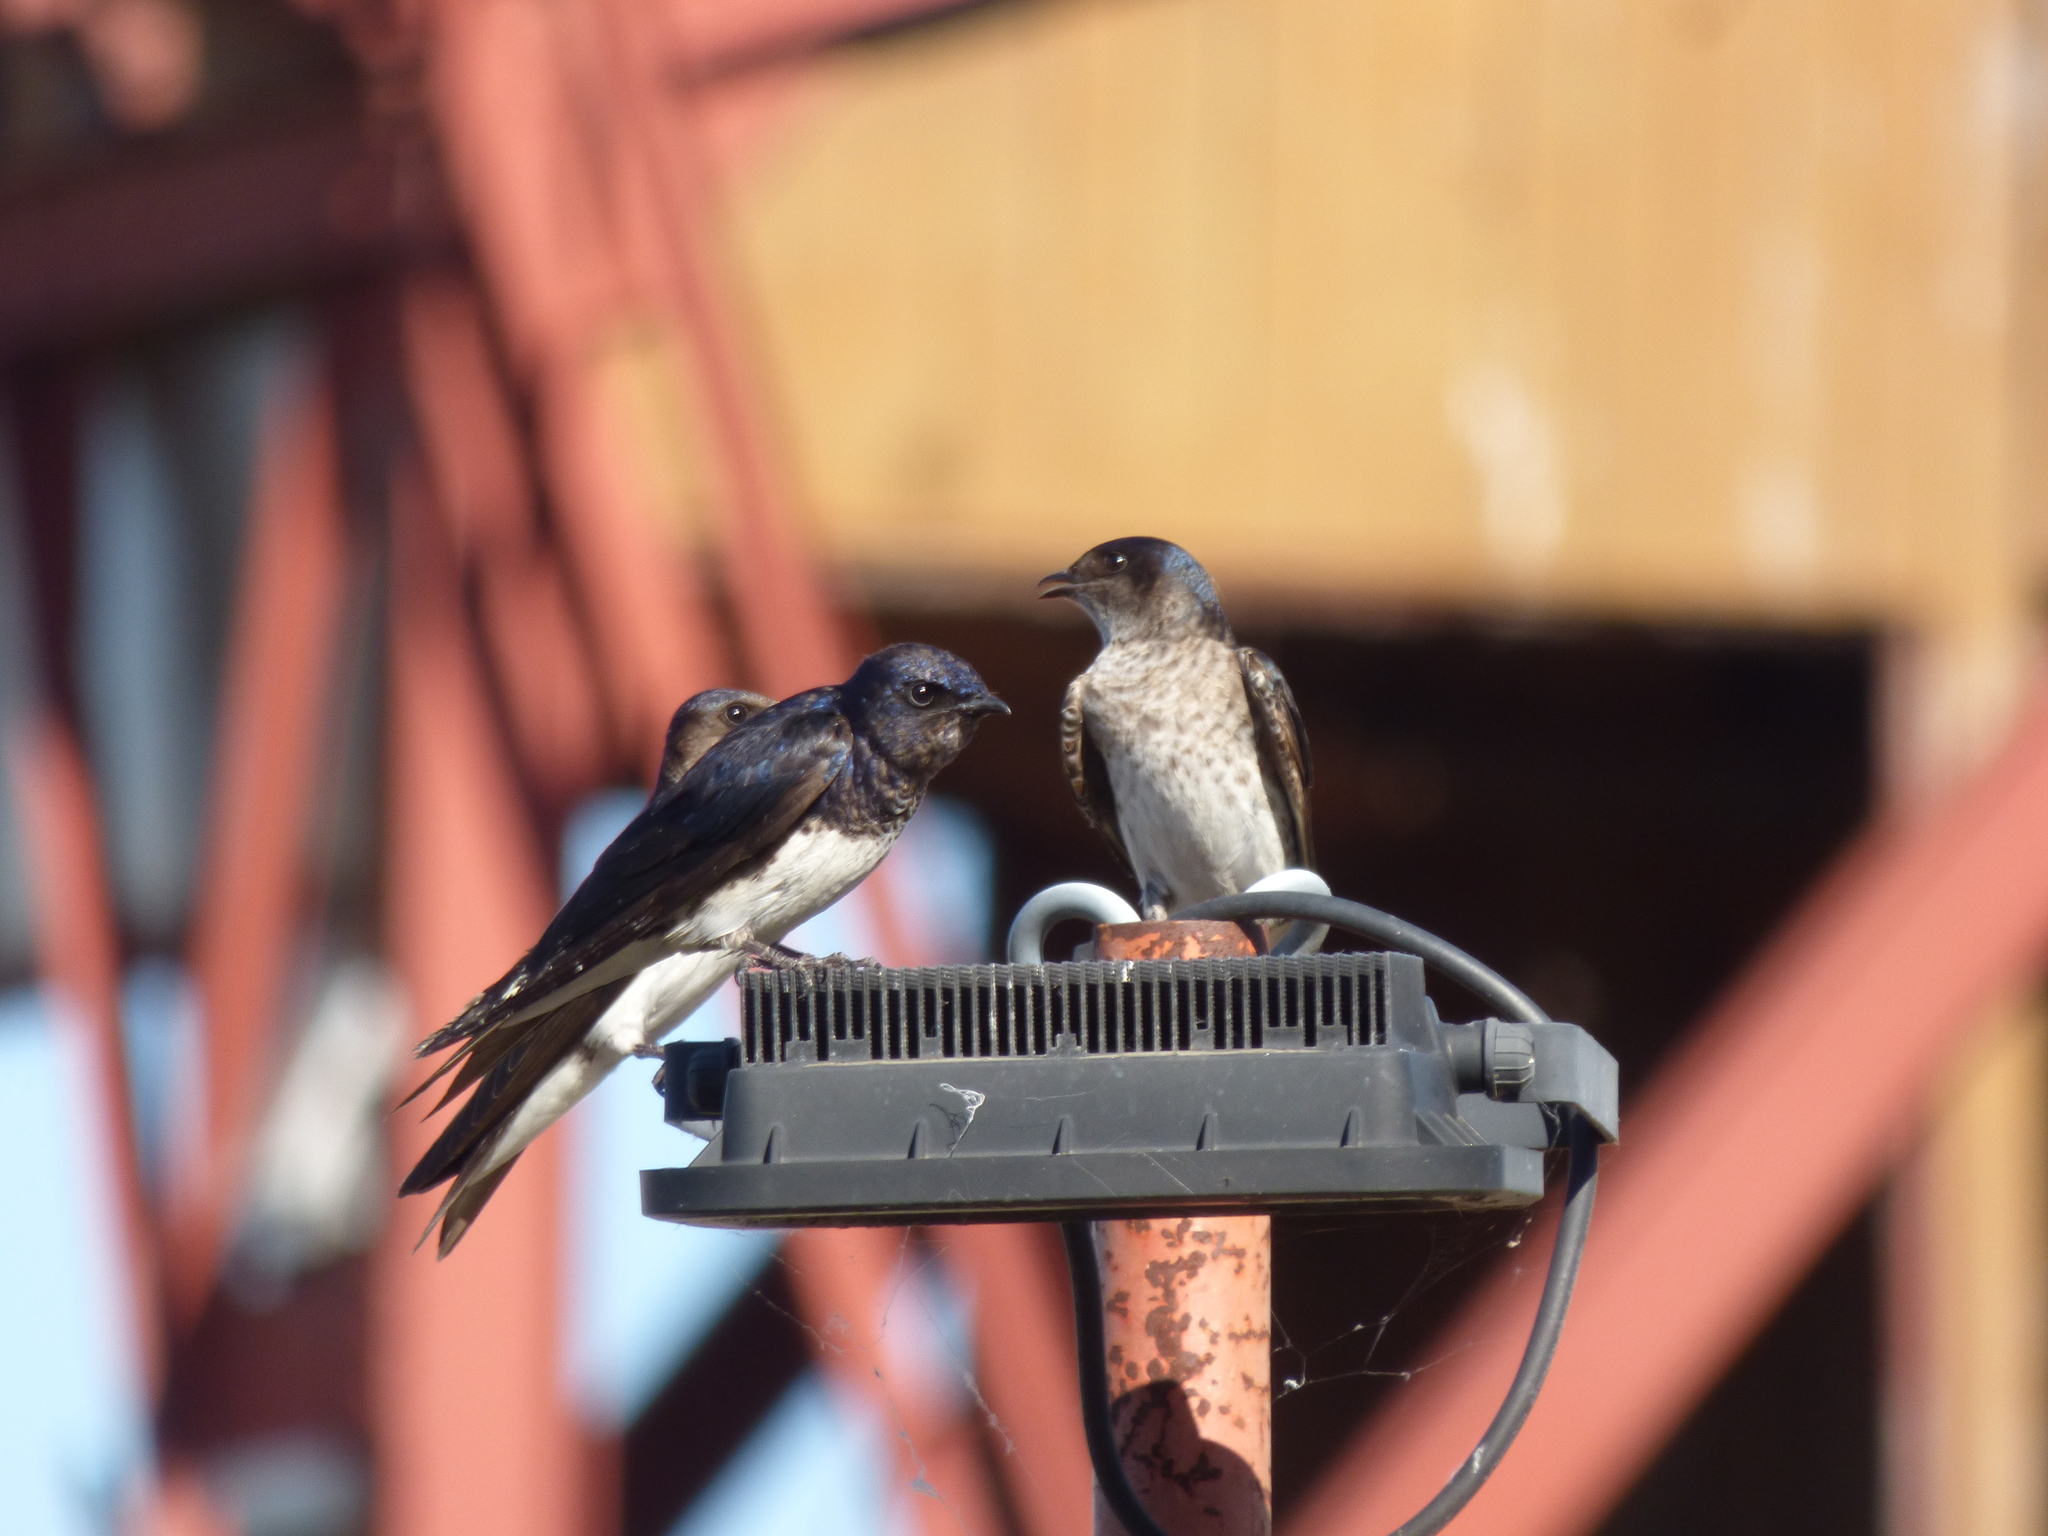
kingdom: Animalia
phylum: Chordata
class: Aves
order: Passeriformes
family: Hirundinidae
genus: Progne
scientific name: Progne chalybea
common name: Grey-breasted martin
